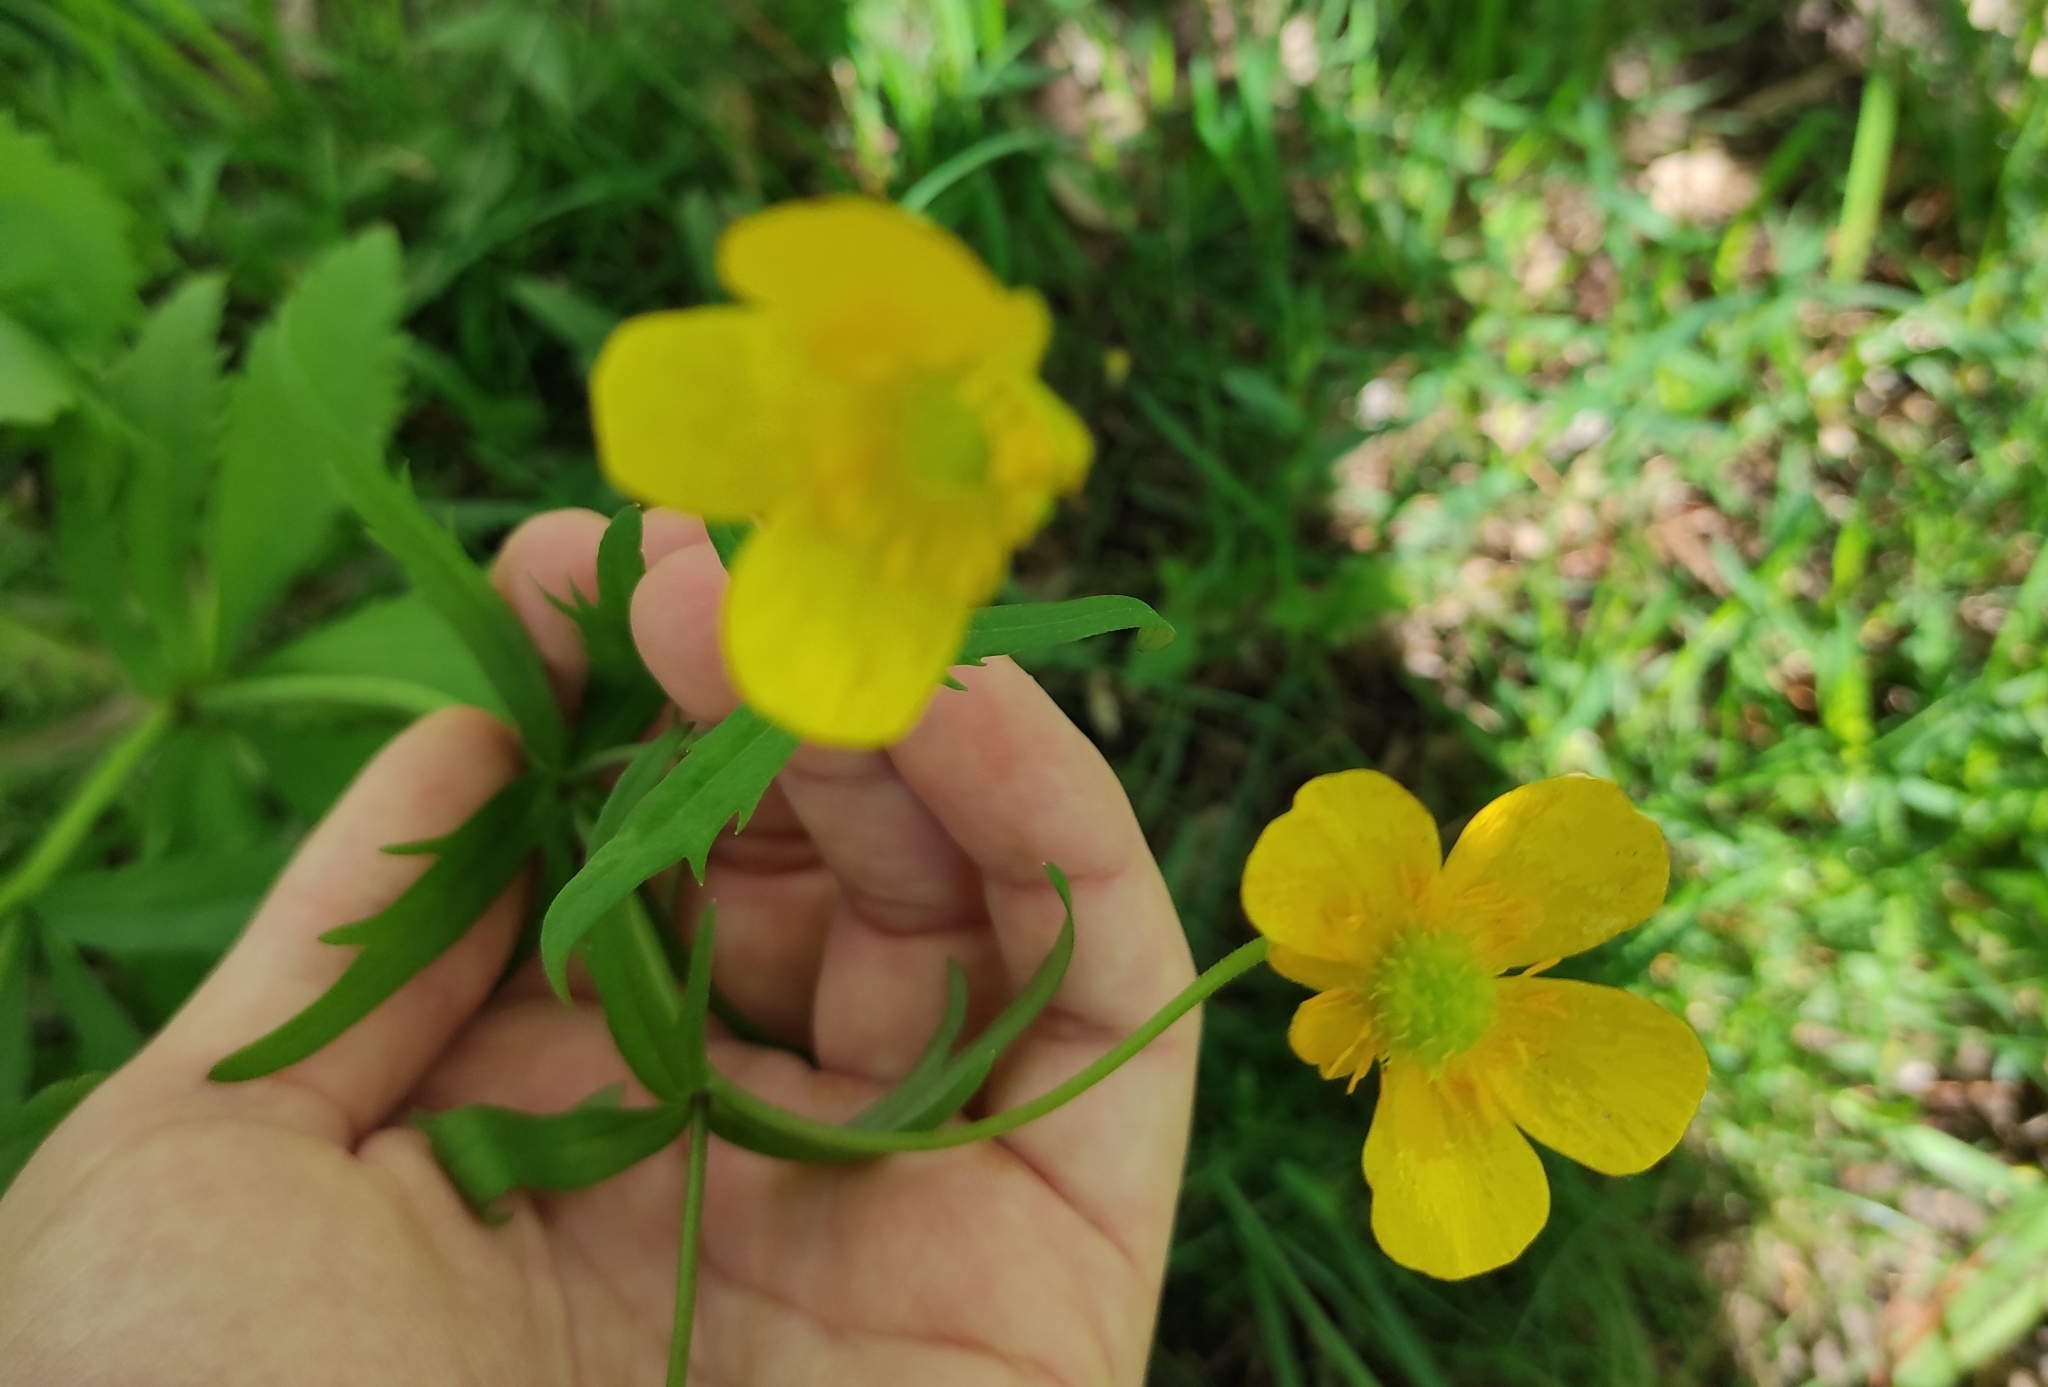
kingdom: Plantae
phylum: Tracheophyta
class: Magnoliopsida
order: Ranunculales
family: Ranunculaceae
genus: Ranunculus
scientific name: Ranunculus cassubicus
